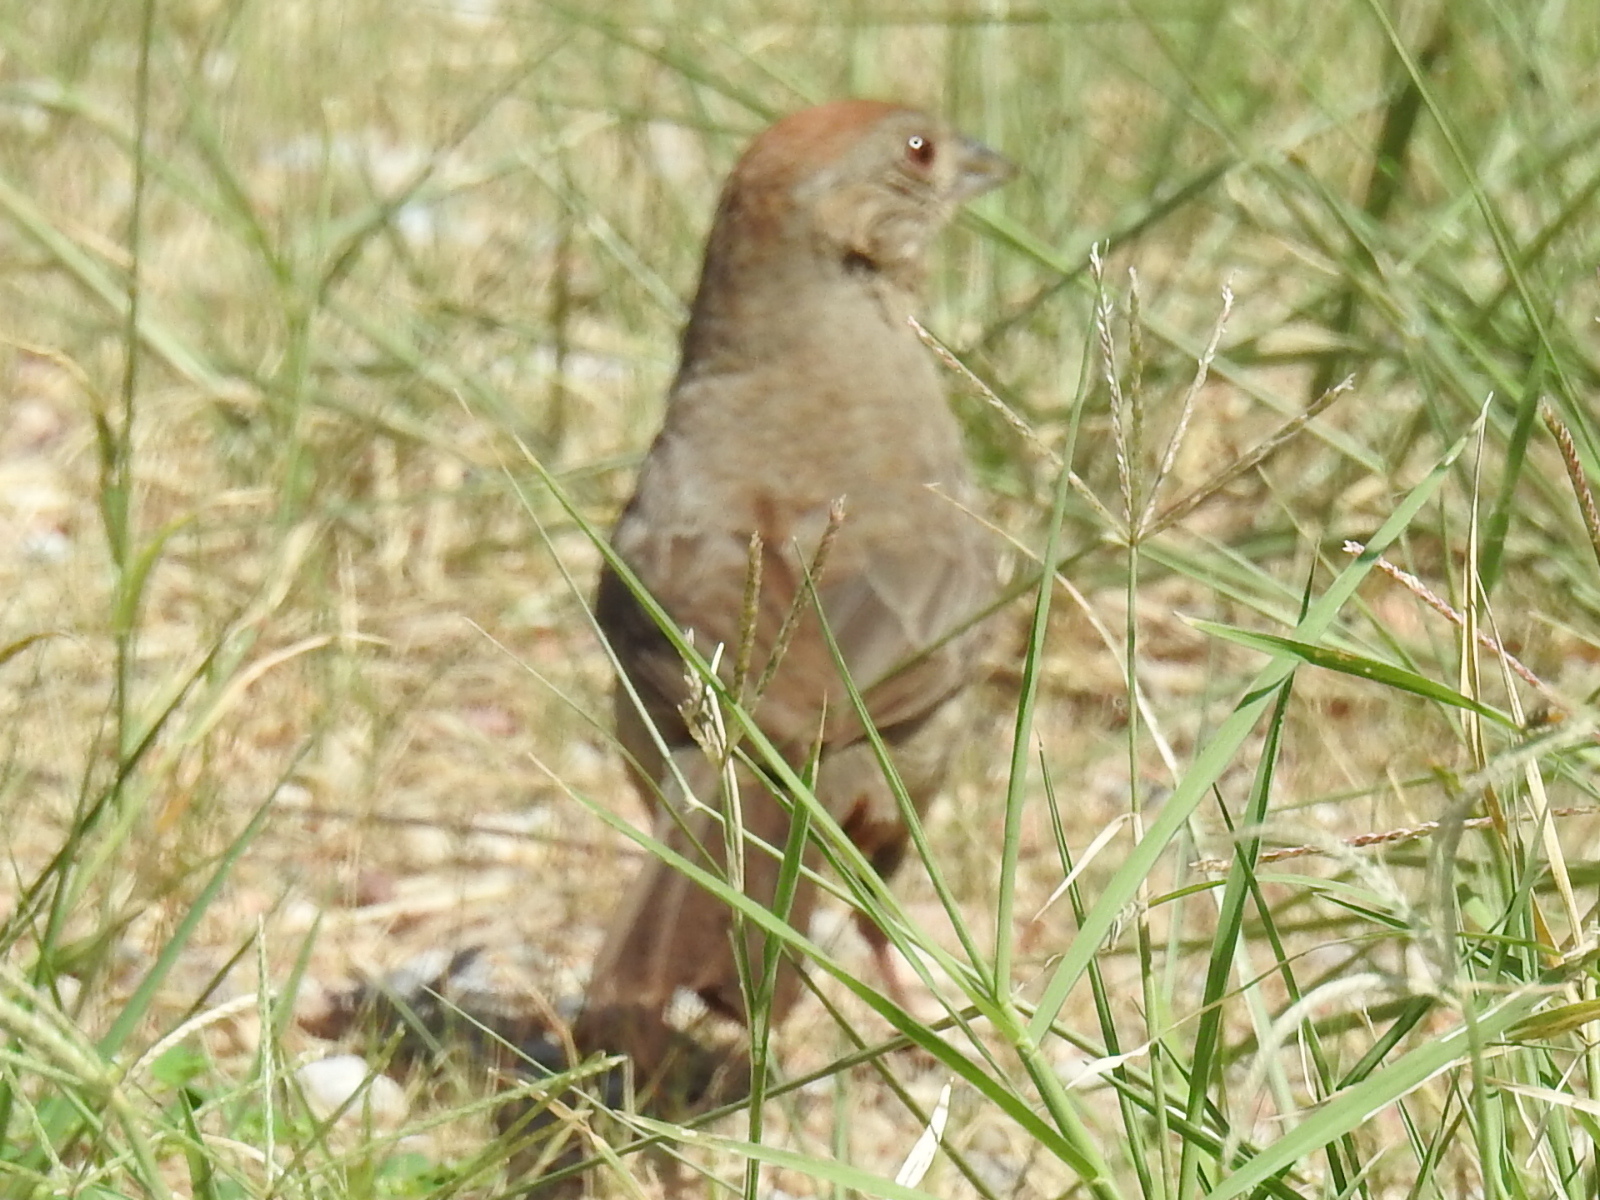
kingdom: Animalia
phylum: Chordata
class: Aves
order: Passeriformes
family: Passerellidae
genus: Melozone
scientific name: Melozone fusca
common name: Canyon towhee
